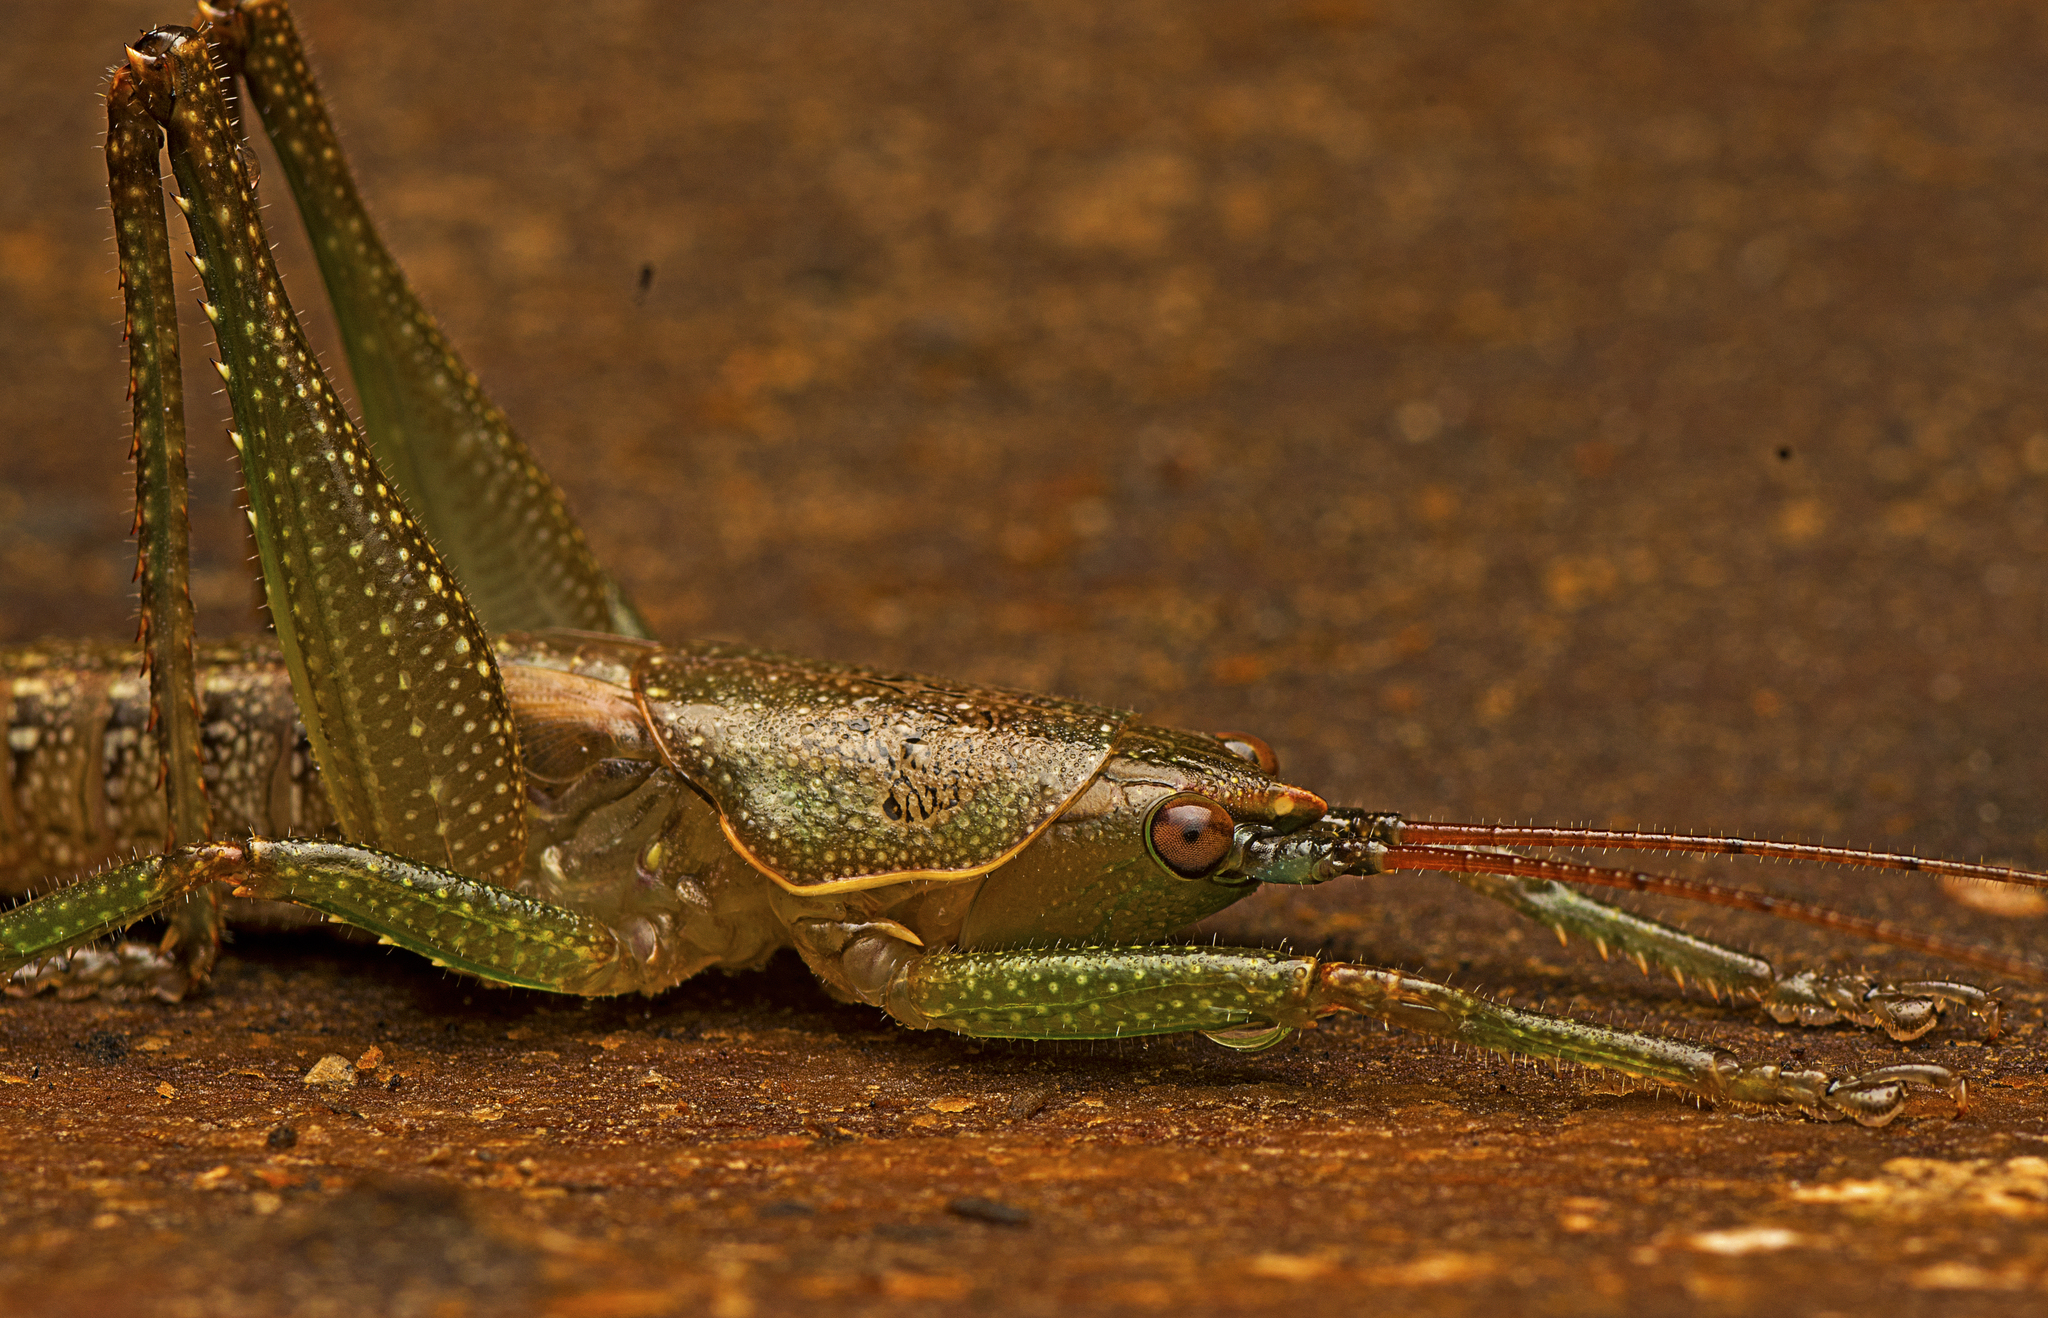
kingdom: Animalia
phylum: Arthropoda
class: Insecta
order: Orthoptera
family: Tettigoniidae
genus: Austrosalomona
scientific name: Austrosalomona falcata
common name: Olive-green coastal katydid
